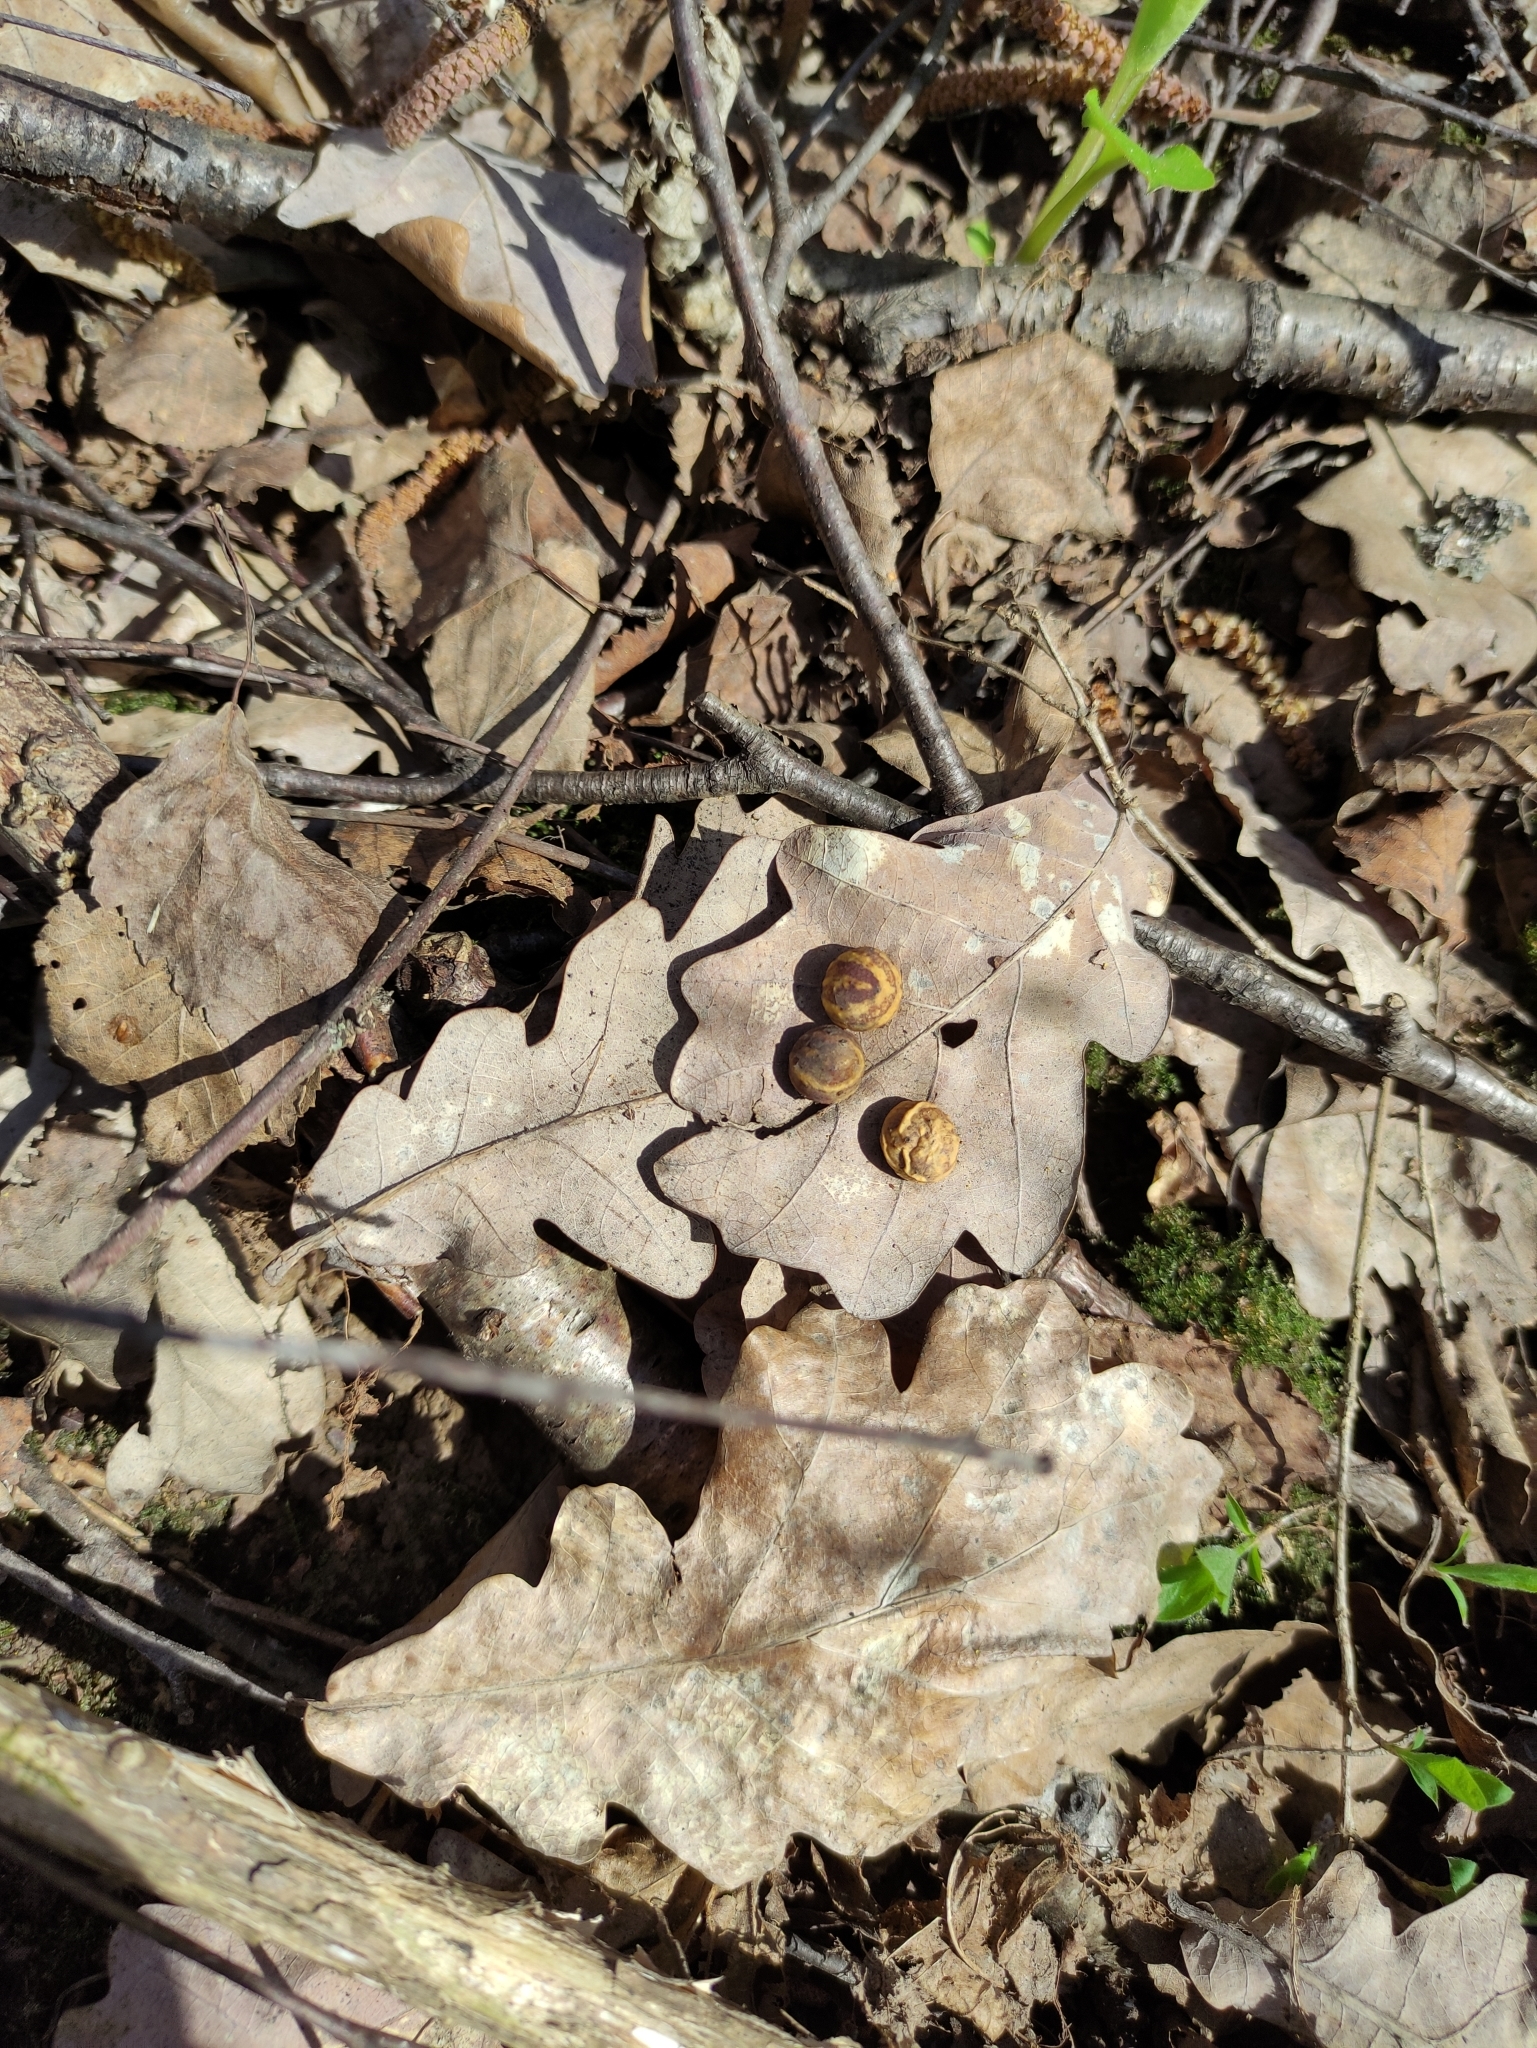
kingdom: Animalia
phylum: Arthropoda
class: Insecta
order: Hymenoptera
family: Cynipidae
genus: Cynips
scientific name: Cynips longiventris
